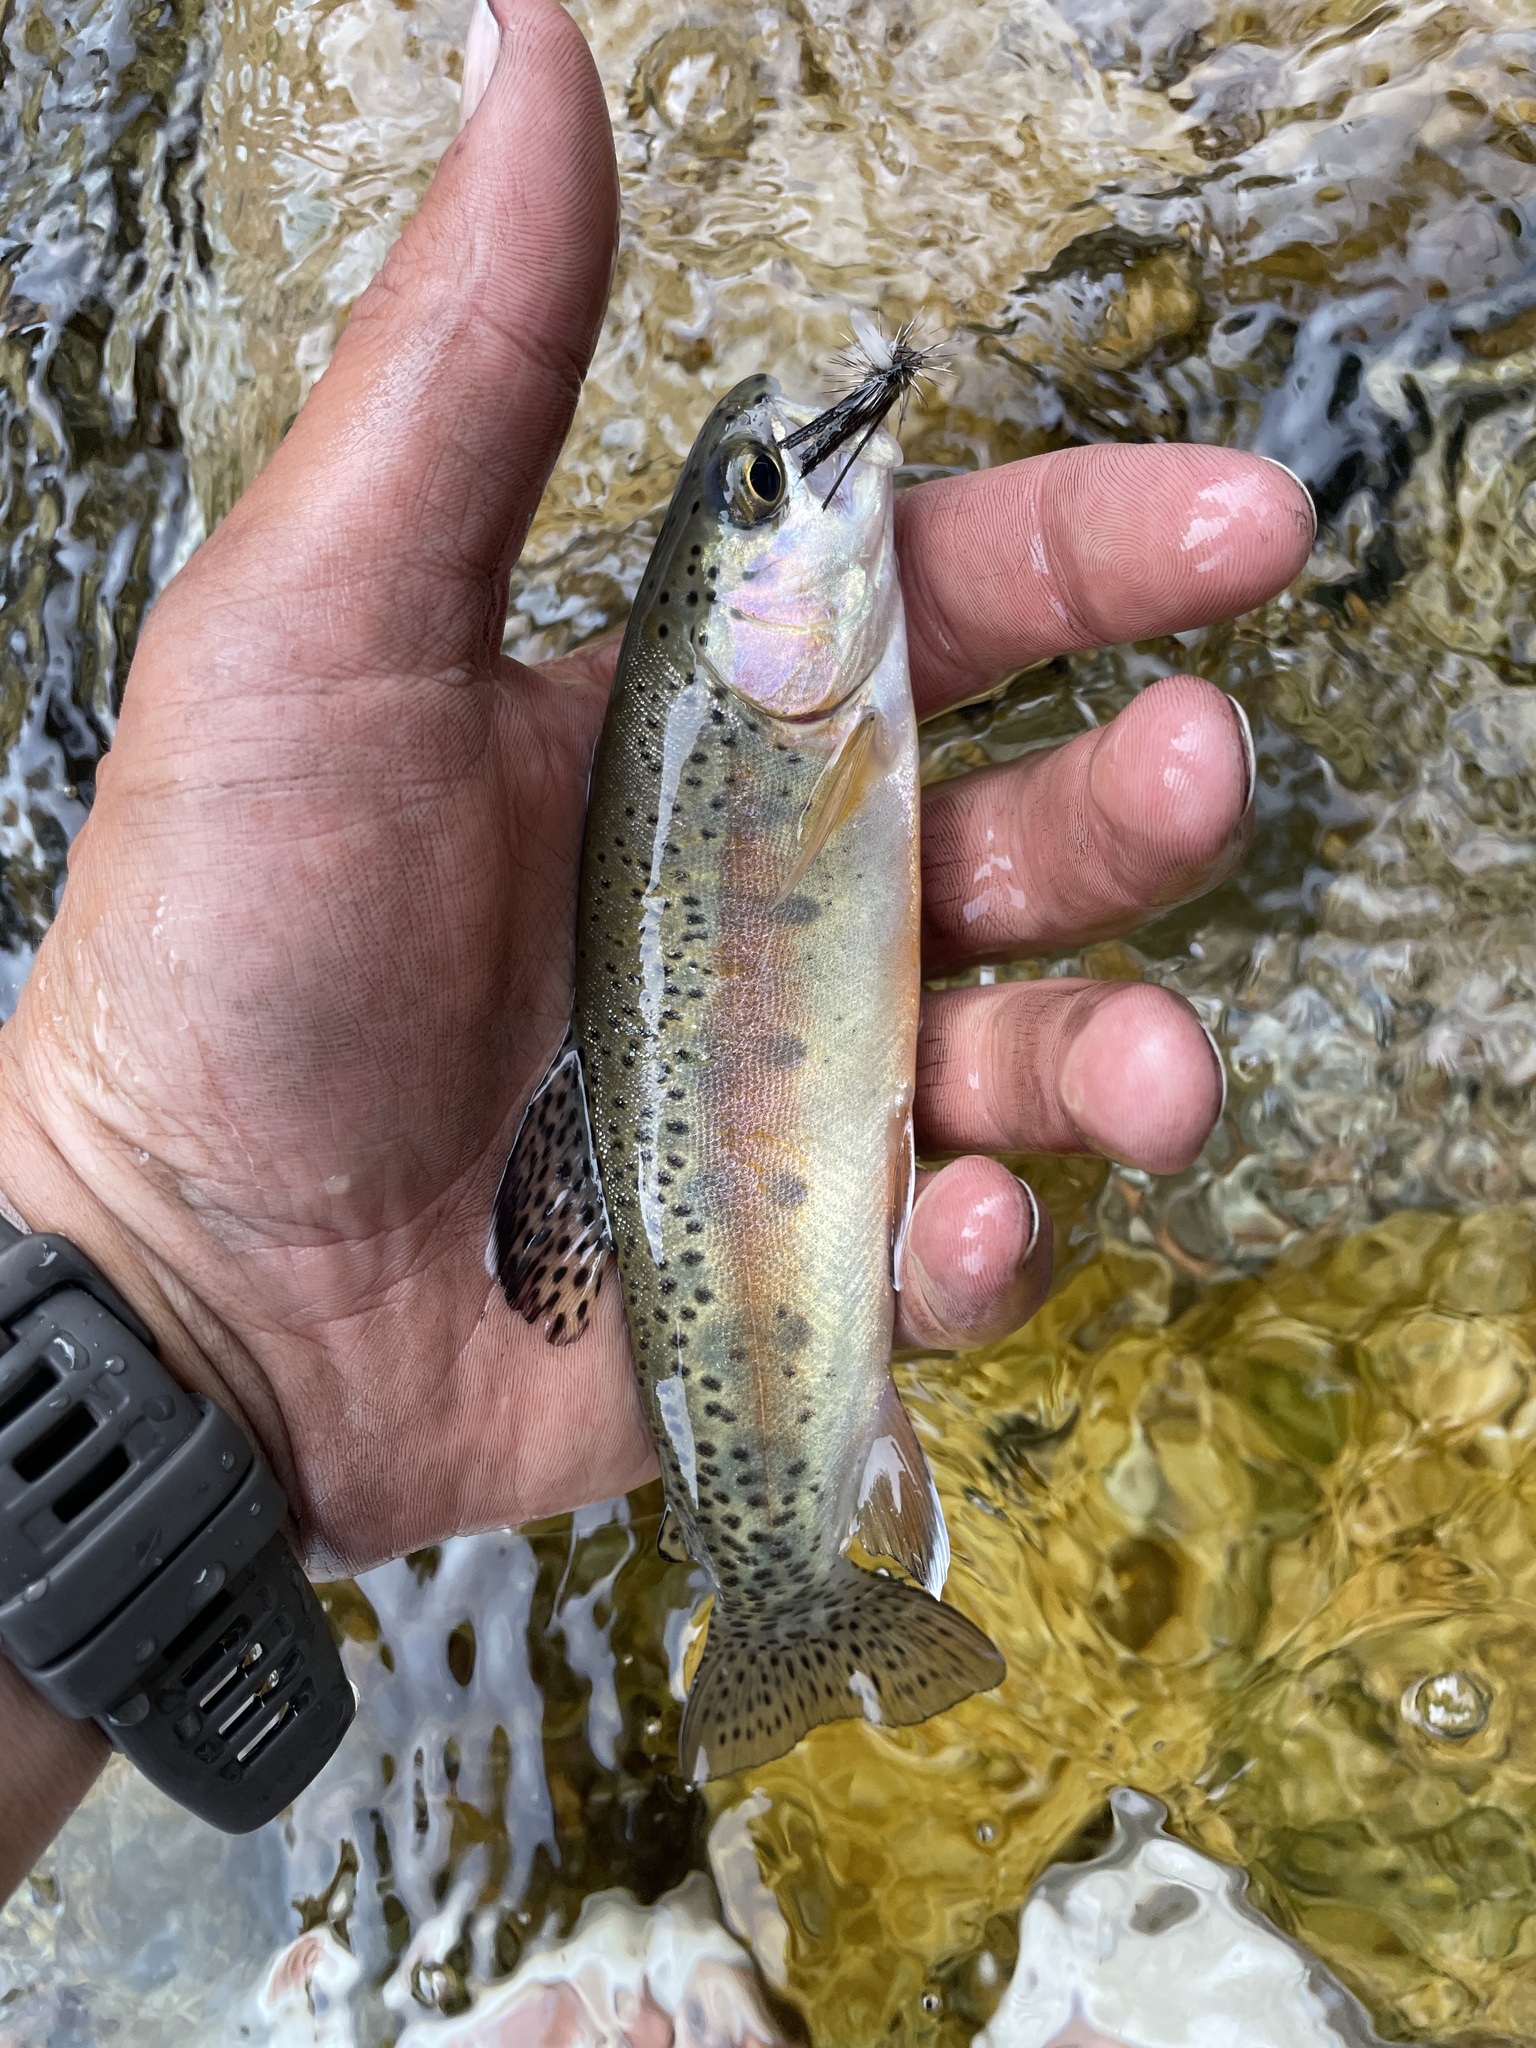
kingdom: Animalia
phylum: Chordata
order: Salmoniformes
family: Salmonidae
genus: Oncorhynchus
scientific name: Oncorhynchus mykiss
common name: Rainbow trout
